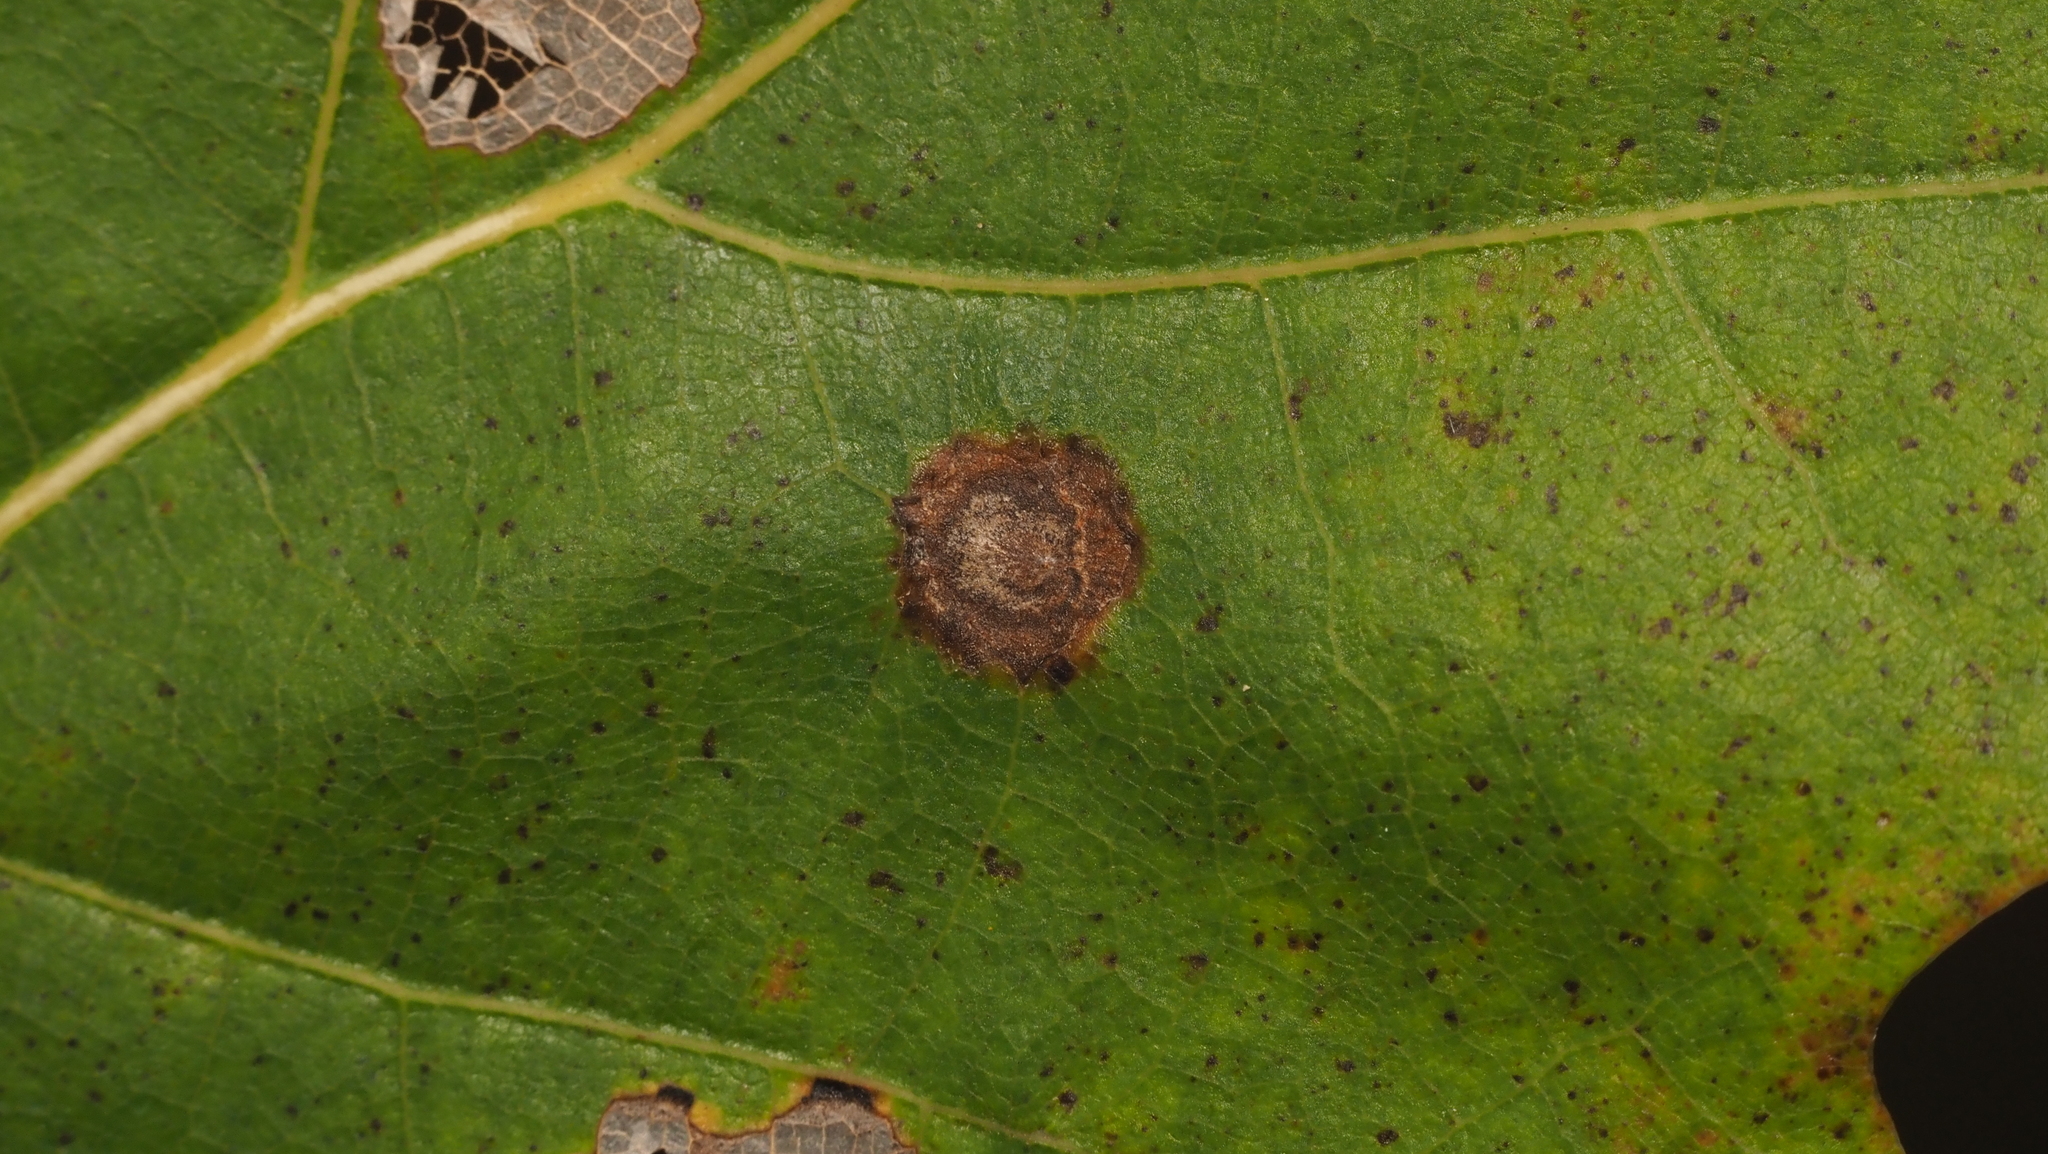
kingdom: Animalia
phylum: Arthropoda
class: Insecta
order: Hymenoptera
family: Cynipidae
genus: Dryocosmus
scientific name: Dryocosmus
